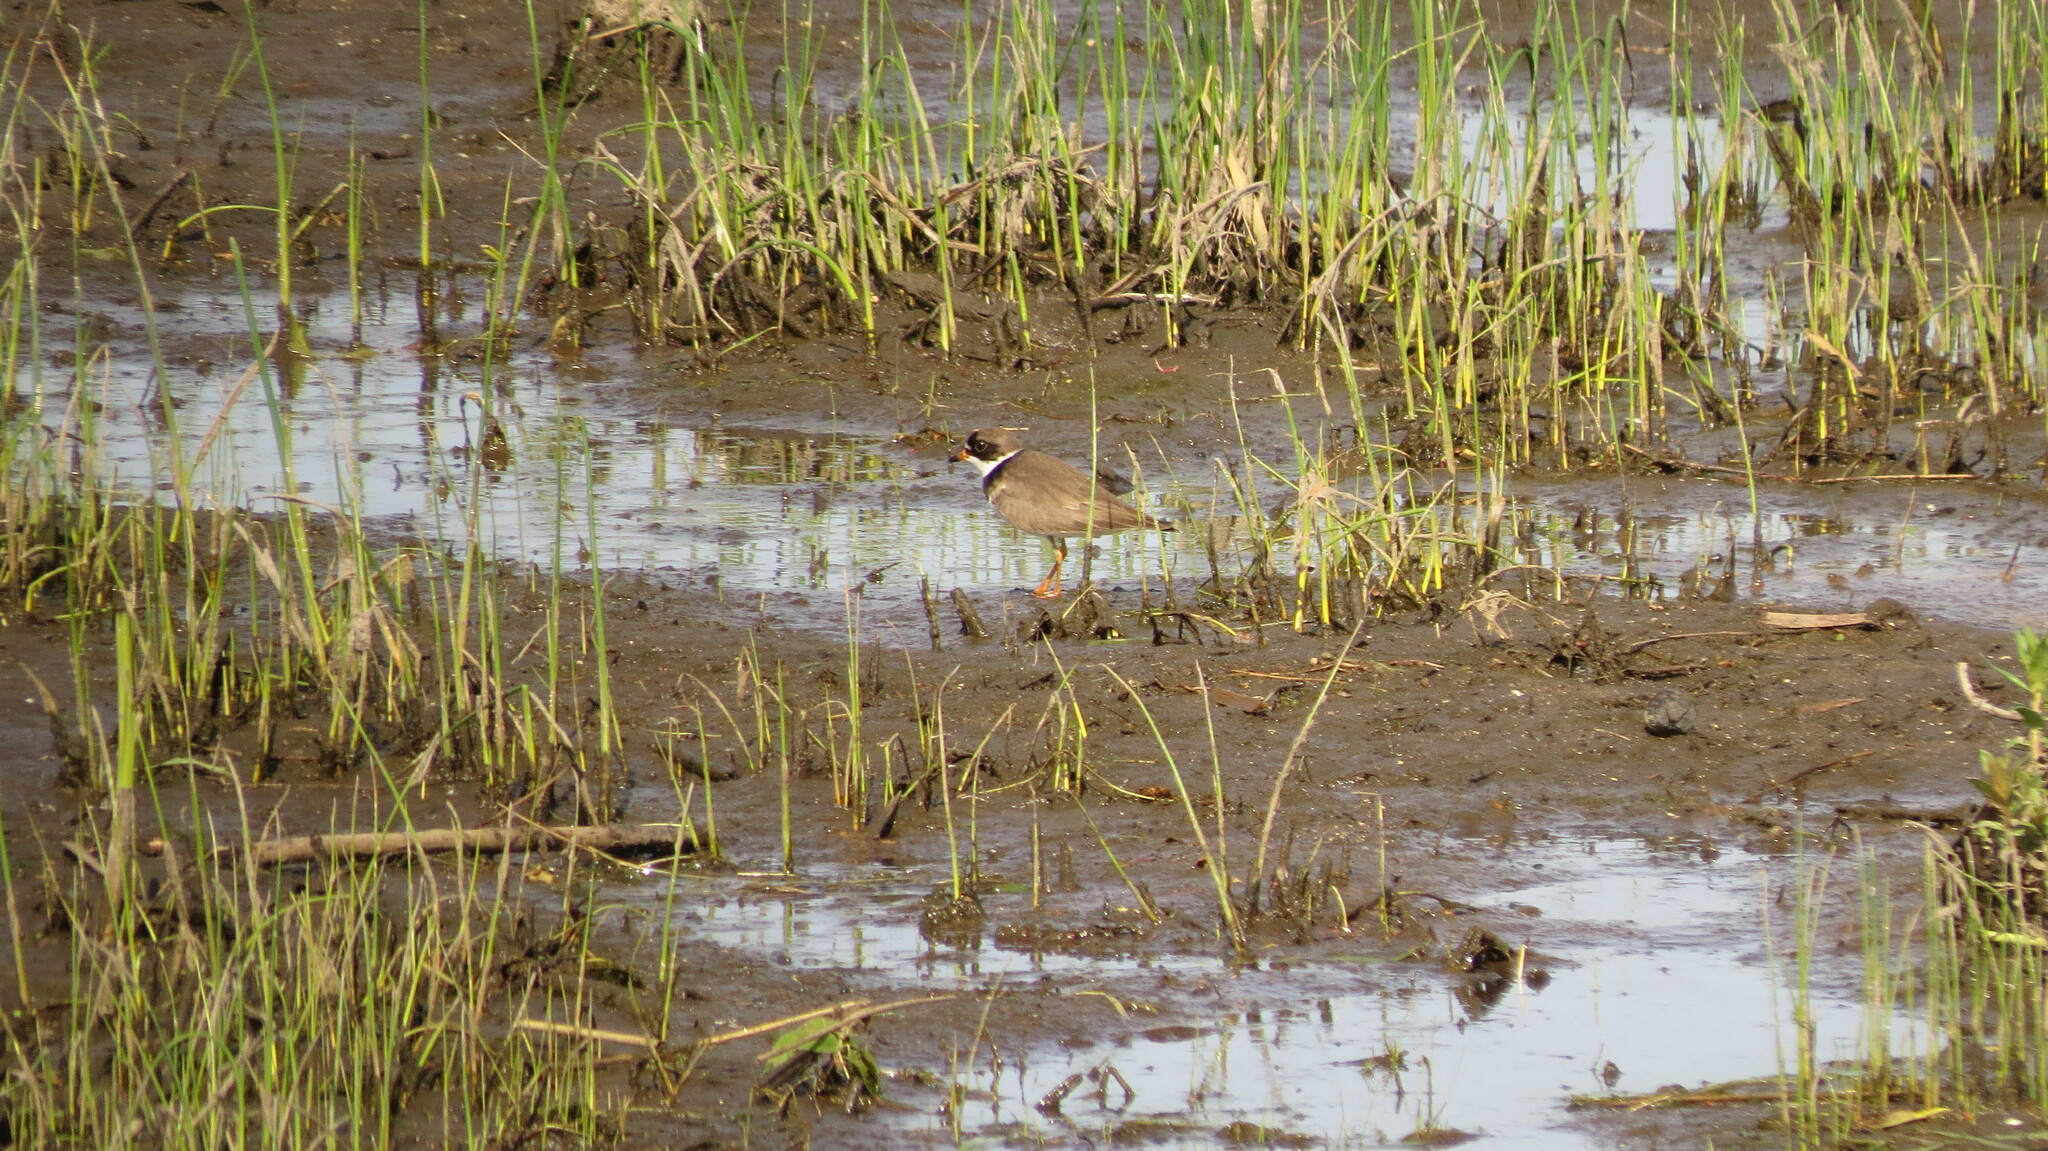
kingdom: Animalia
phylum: Chordata
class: Aves
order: Charadriiformes
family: Charadriidae
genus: Charadrius
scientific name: Charadrius semipalmatus
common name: Semipalmated plover
